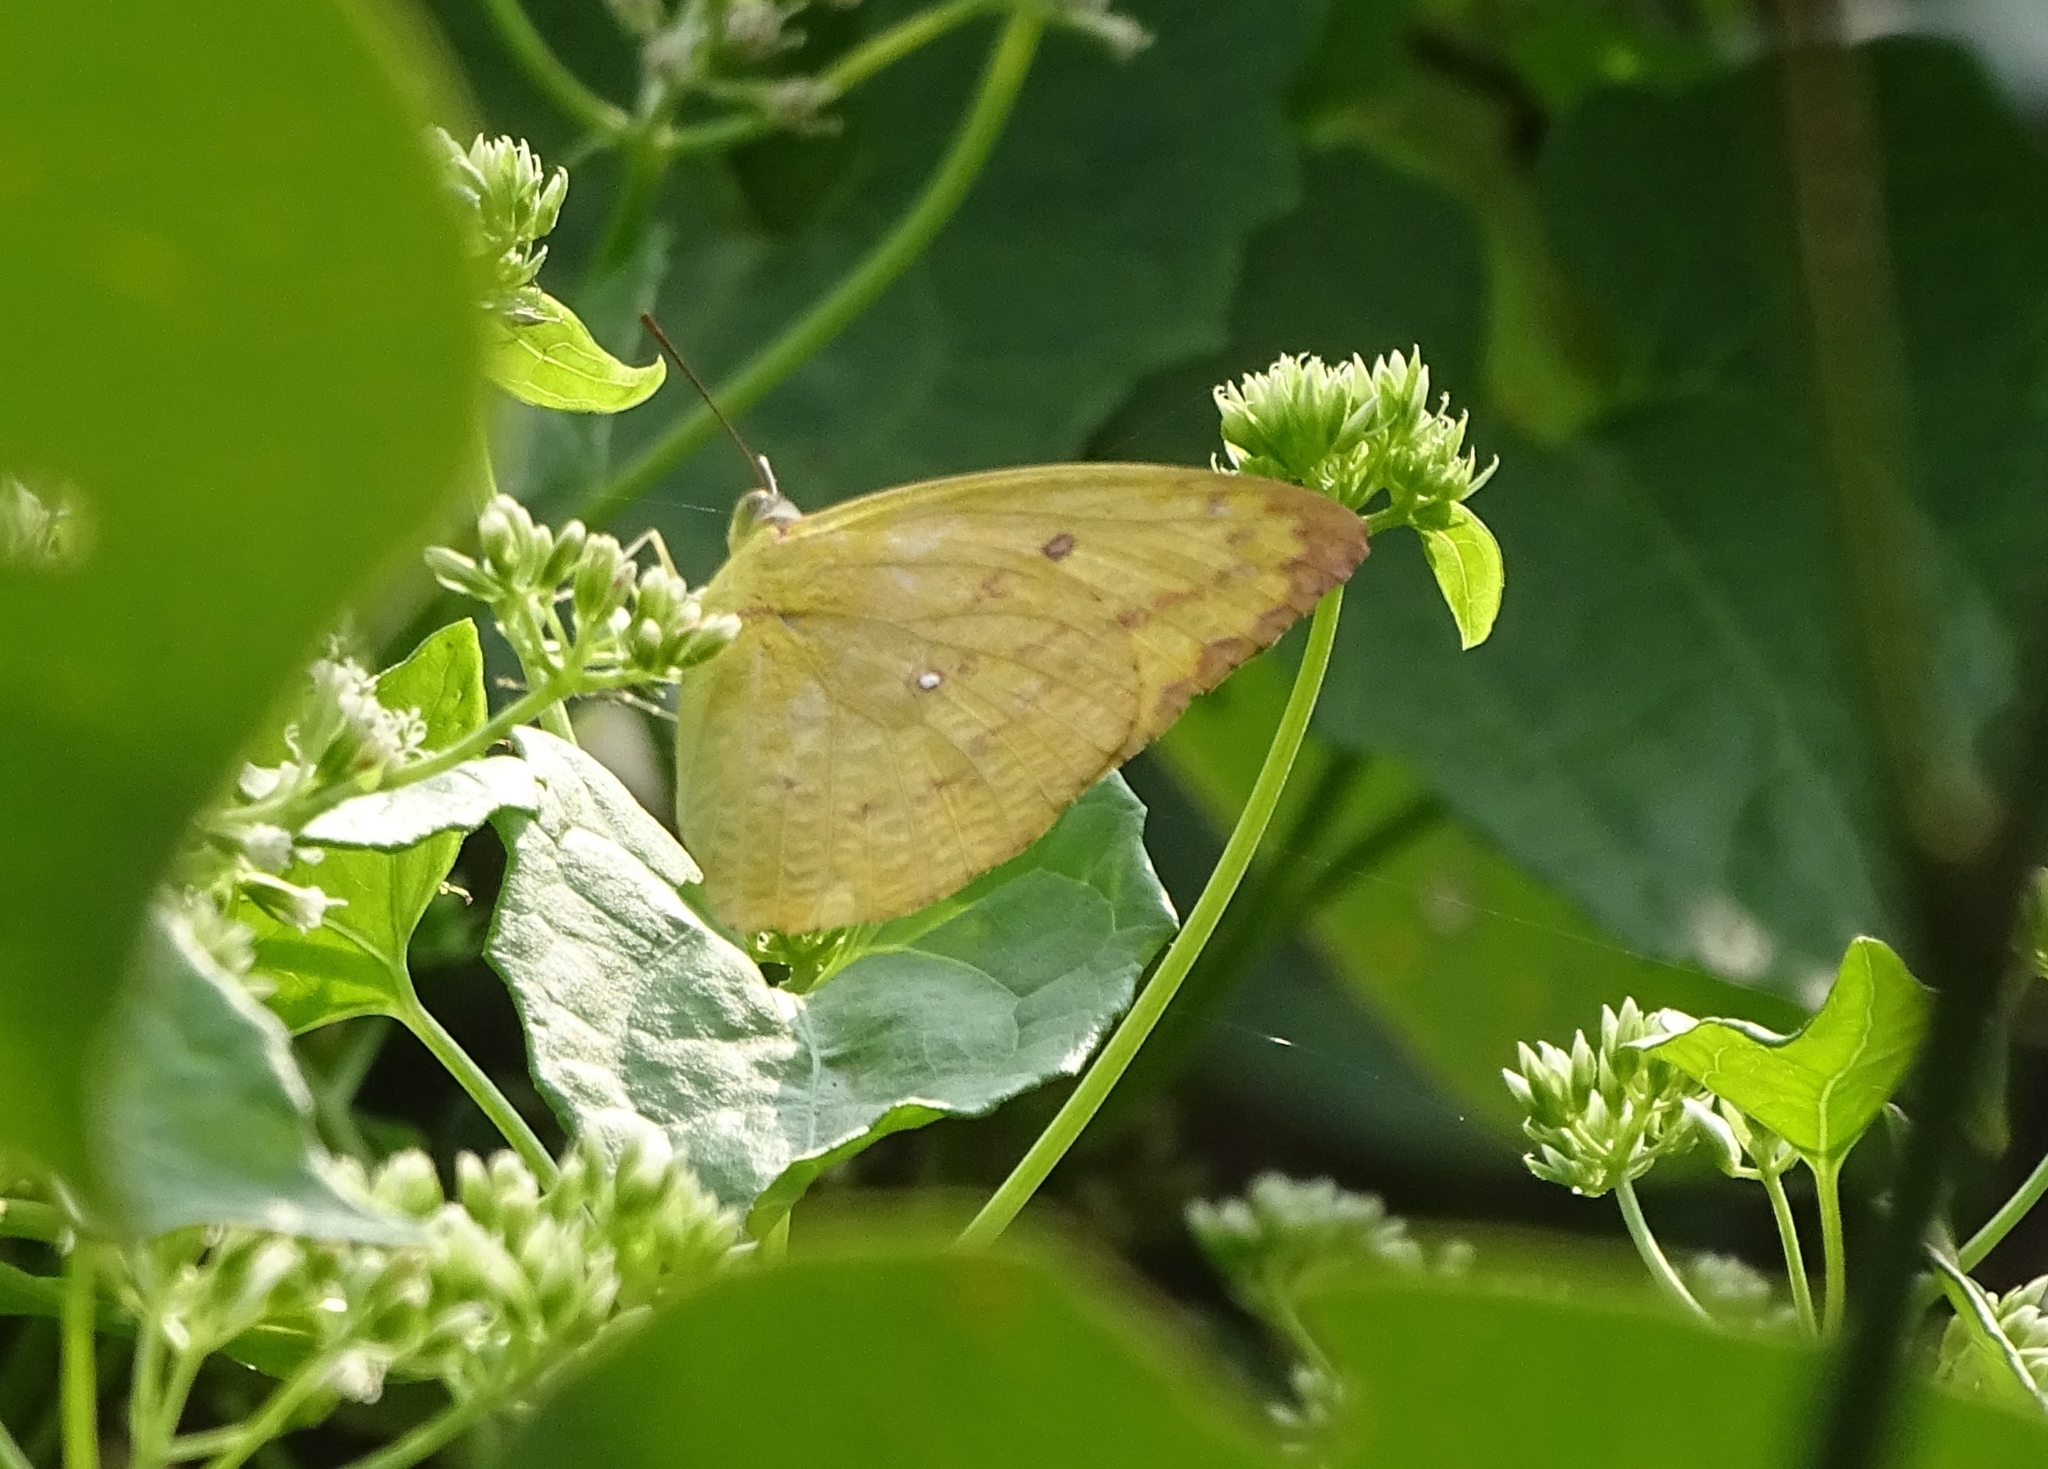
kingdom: Animalia
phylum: Arthropoda
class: Insecta
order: Lepidoptera
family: Pieridae
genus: Catopsilia
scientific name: Catopsilia pomona
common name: Common emigrant
